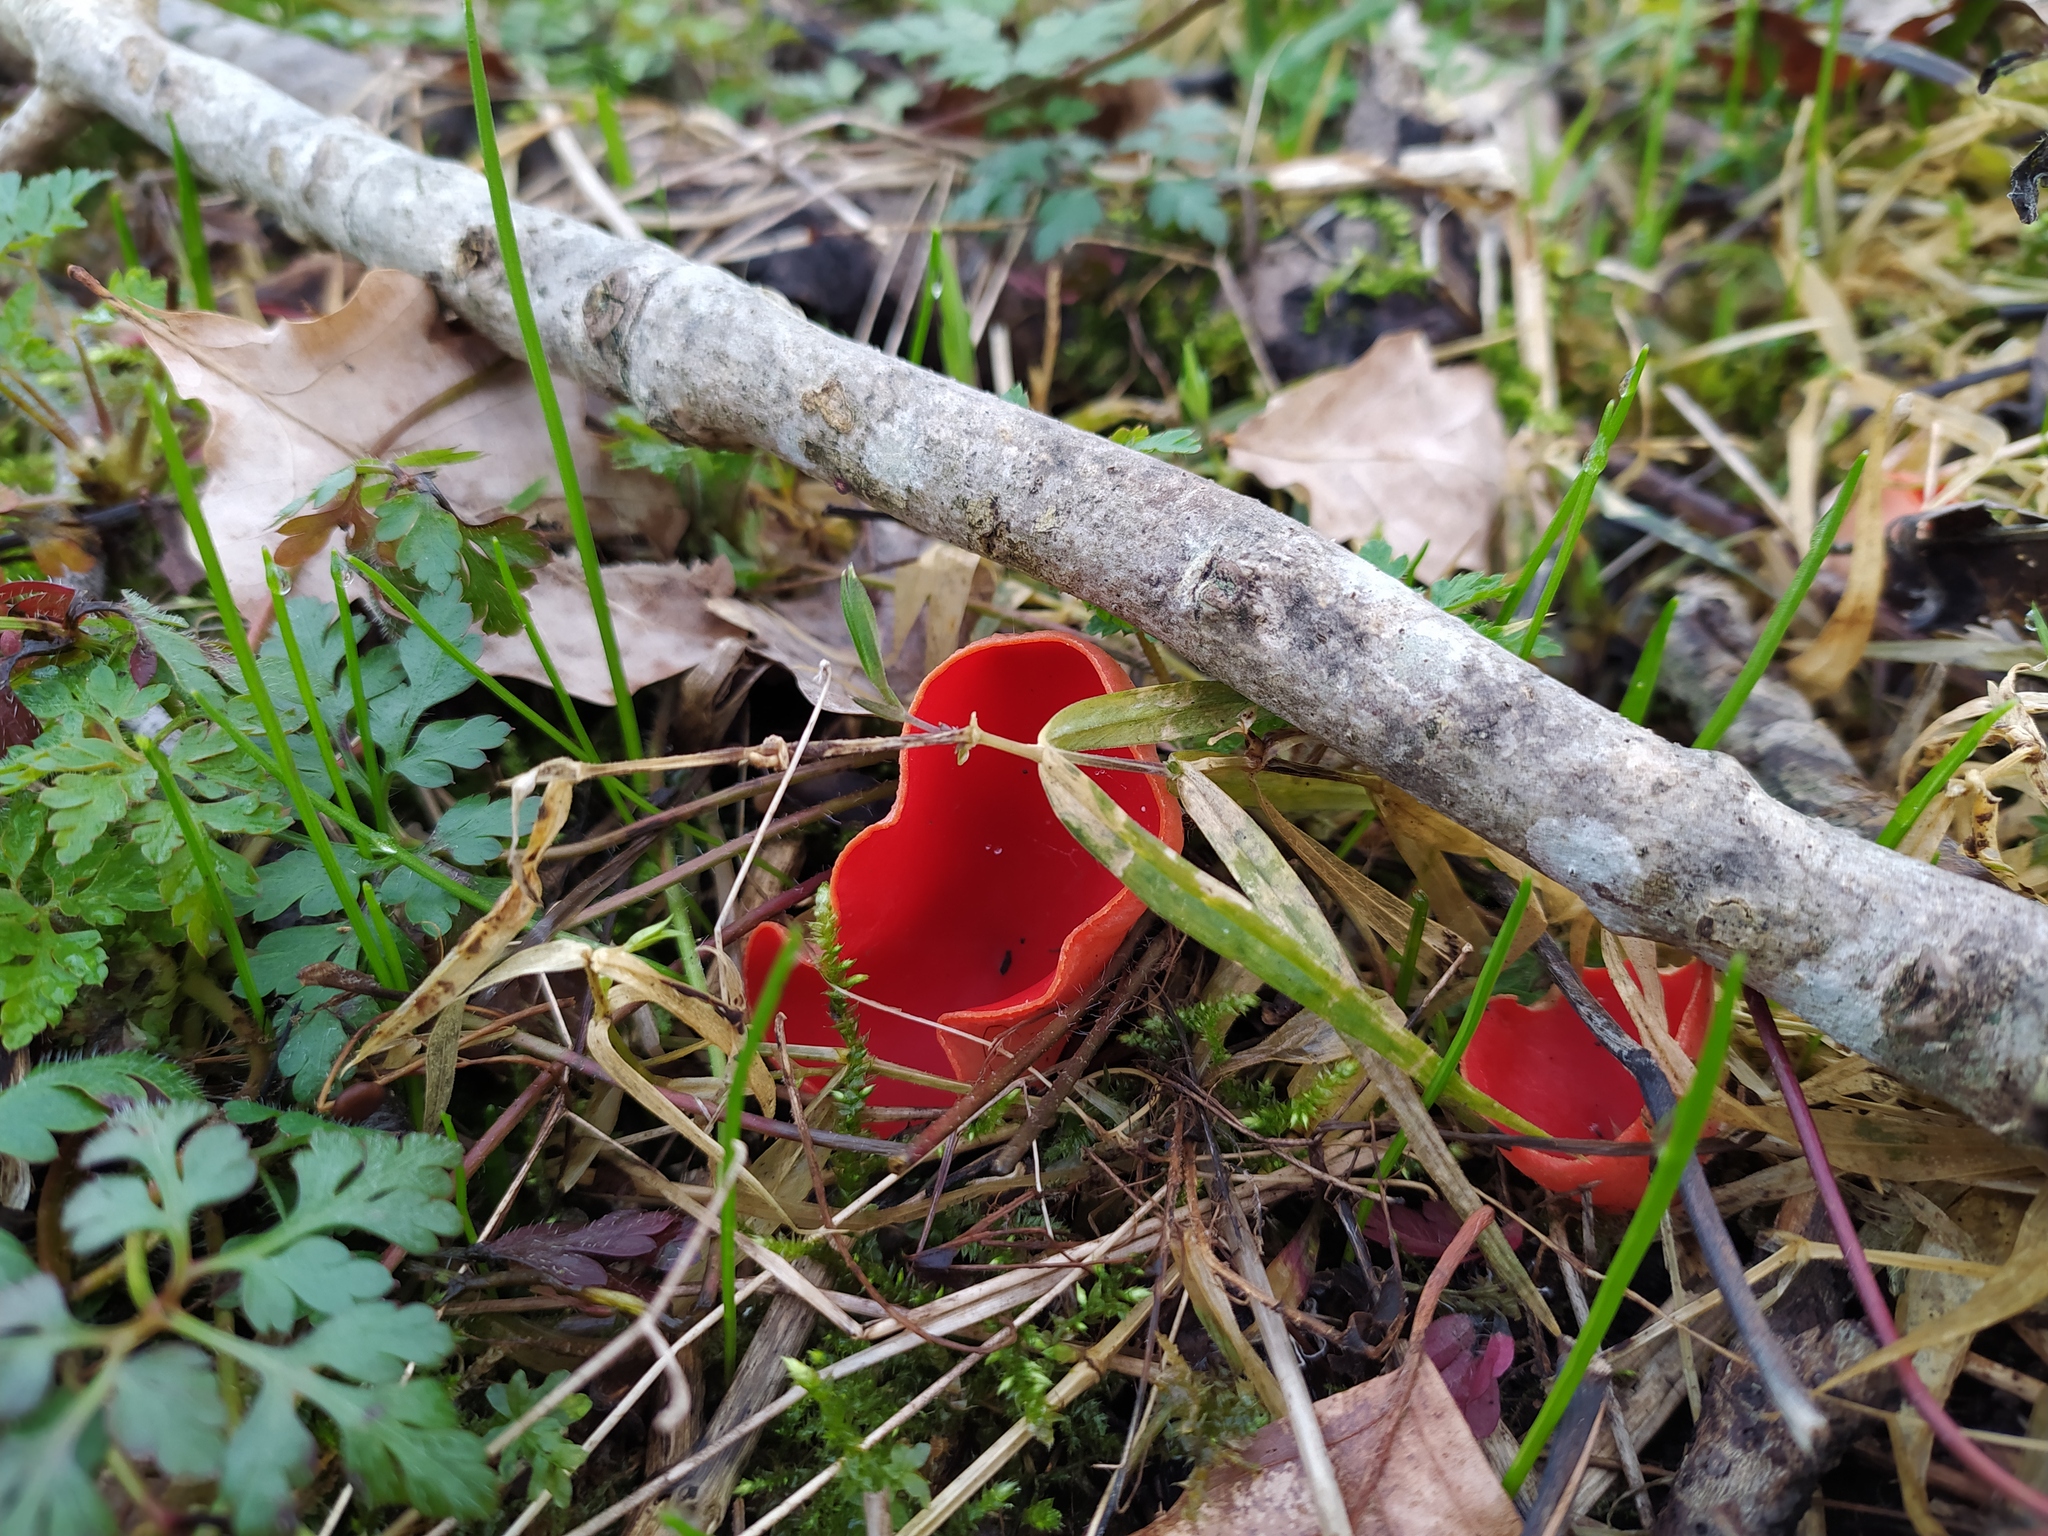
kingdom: Fungi
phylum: Ascomycota
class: Pezizomycetes
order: Pezizales
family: Sarcoscyphaceae
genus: Sarcoscypha
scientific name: Sarcoscypha jurana
